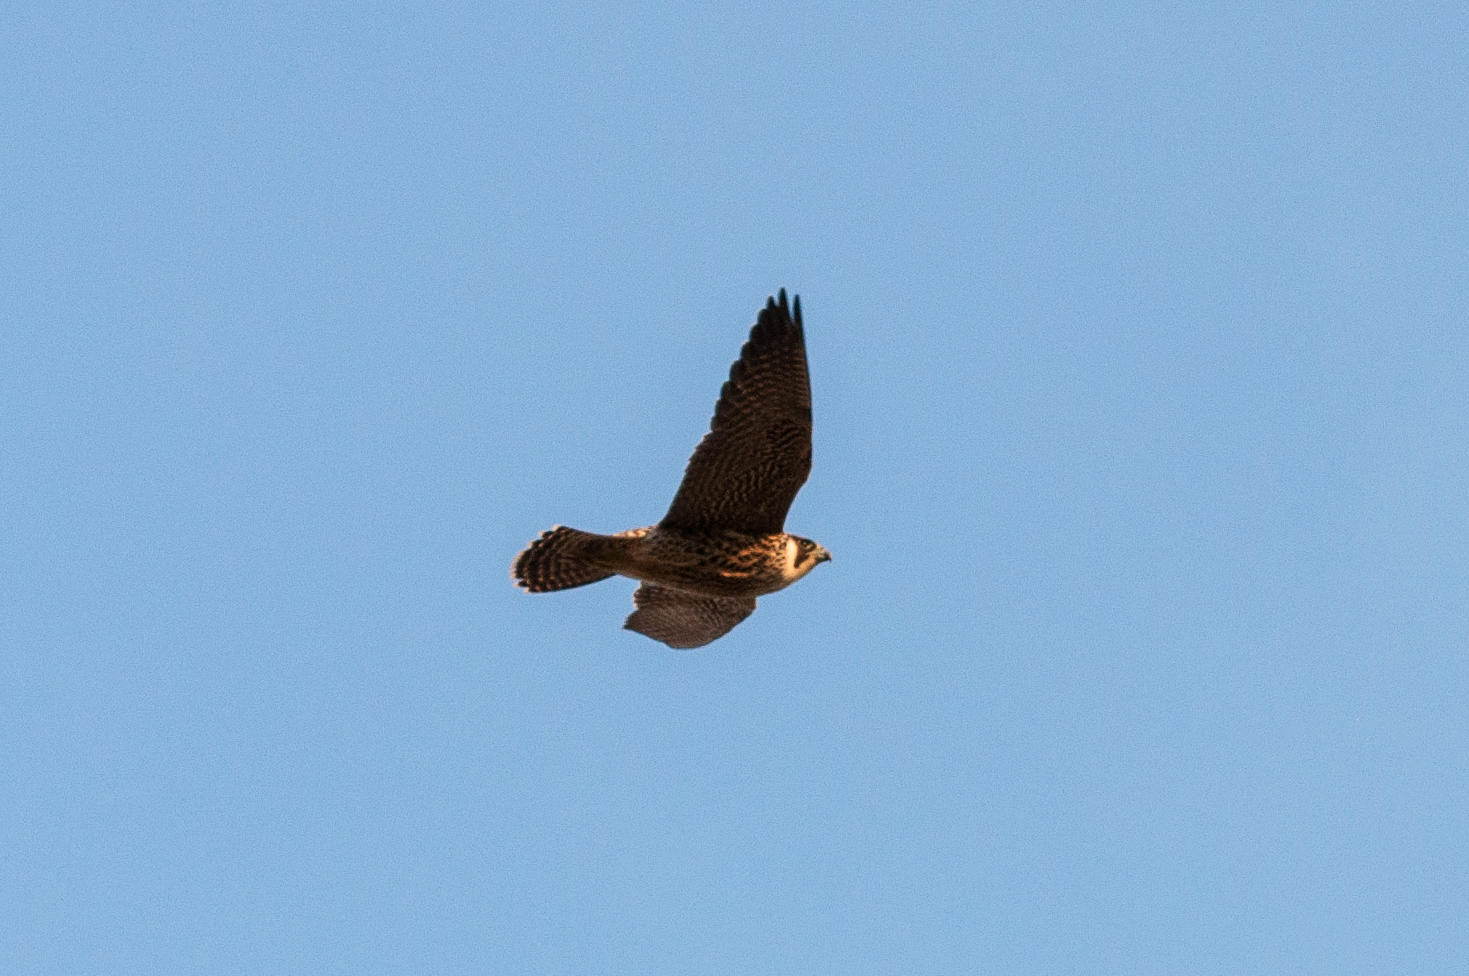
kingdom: Animalia
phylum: Chordata
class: Aves
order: Falconiformes
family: Falconidae
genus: Falco
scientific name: Falco biarmicus
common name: Lanner falcon
